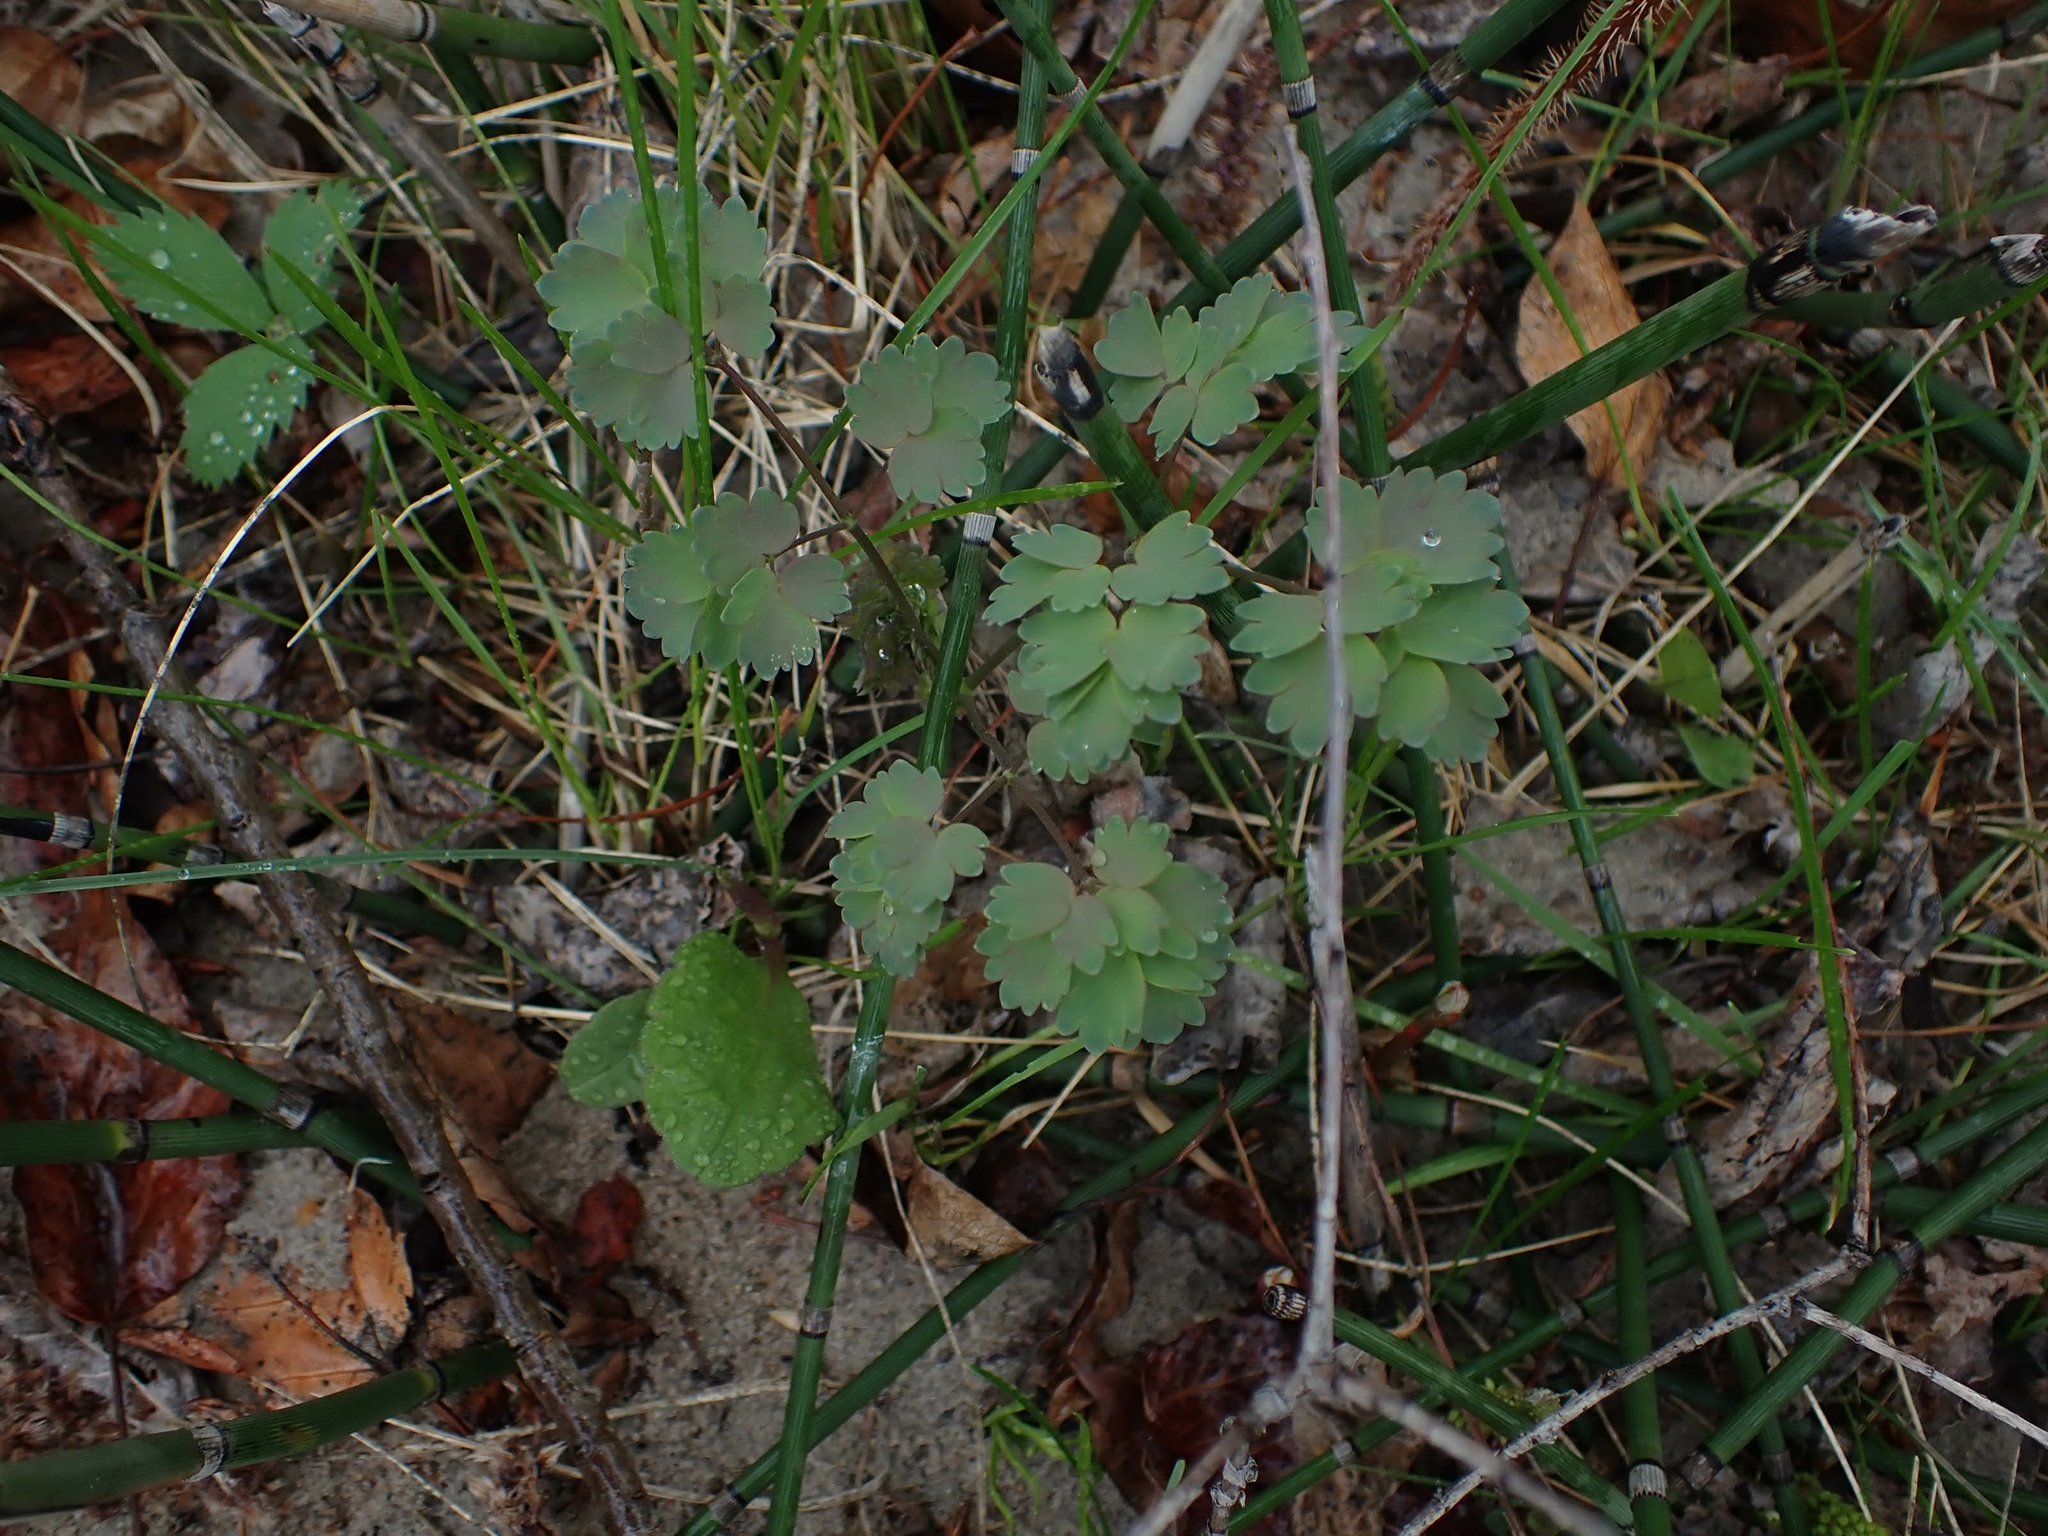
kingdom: Plantae
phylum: Tracheophyta
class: Magnoliopsida
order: Ranunculales
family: Ranunculaceae
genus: Thalictrum
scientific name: Thalictrum venulosum
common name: Early meadow-rue
